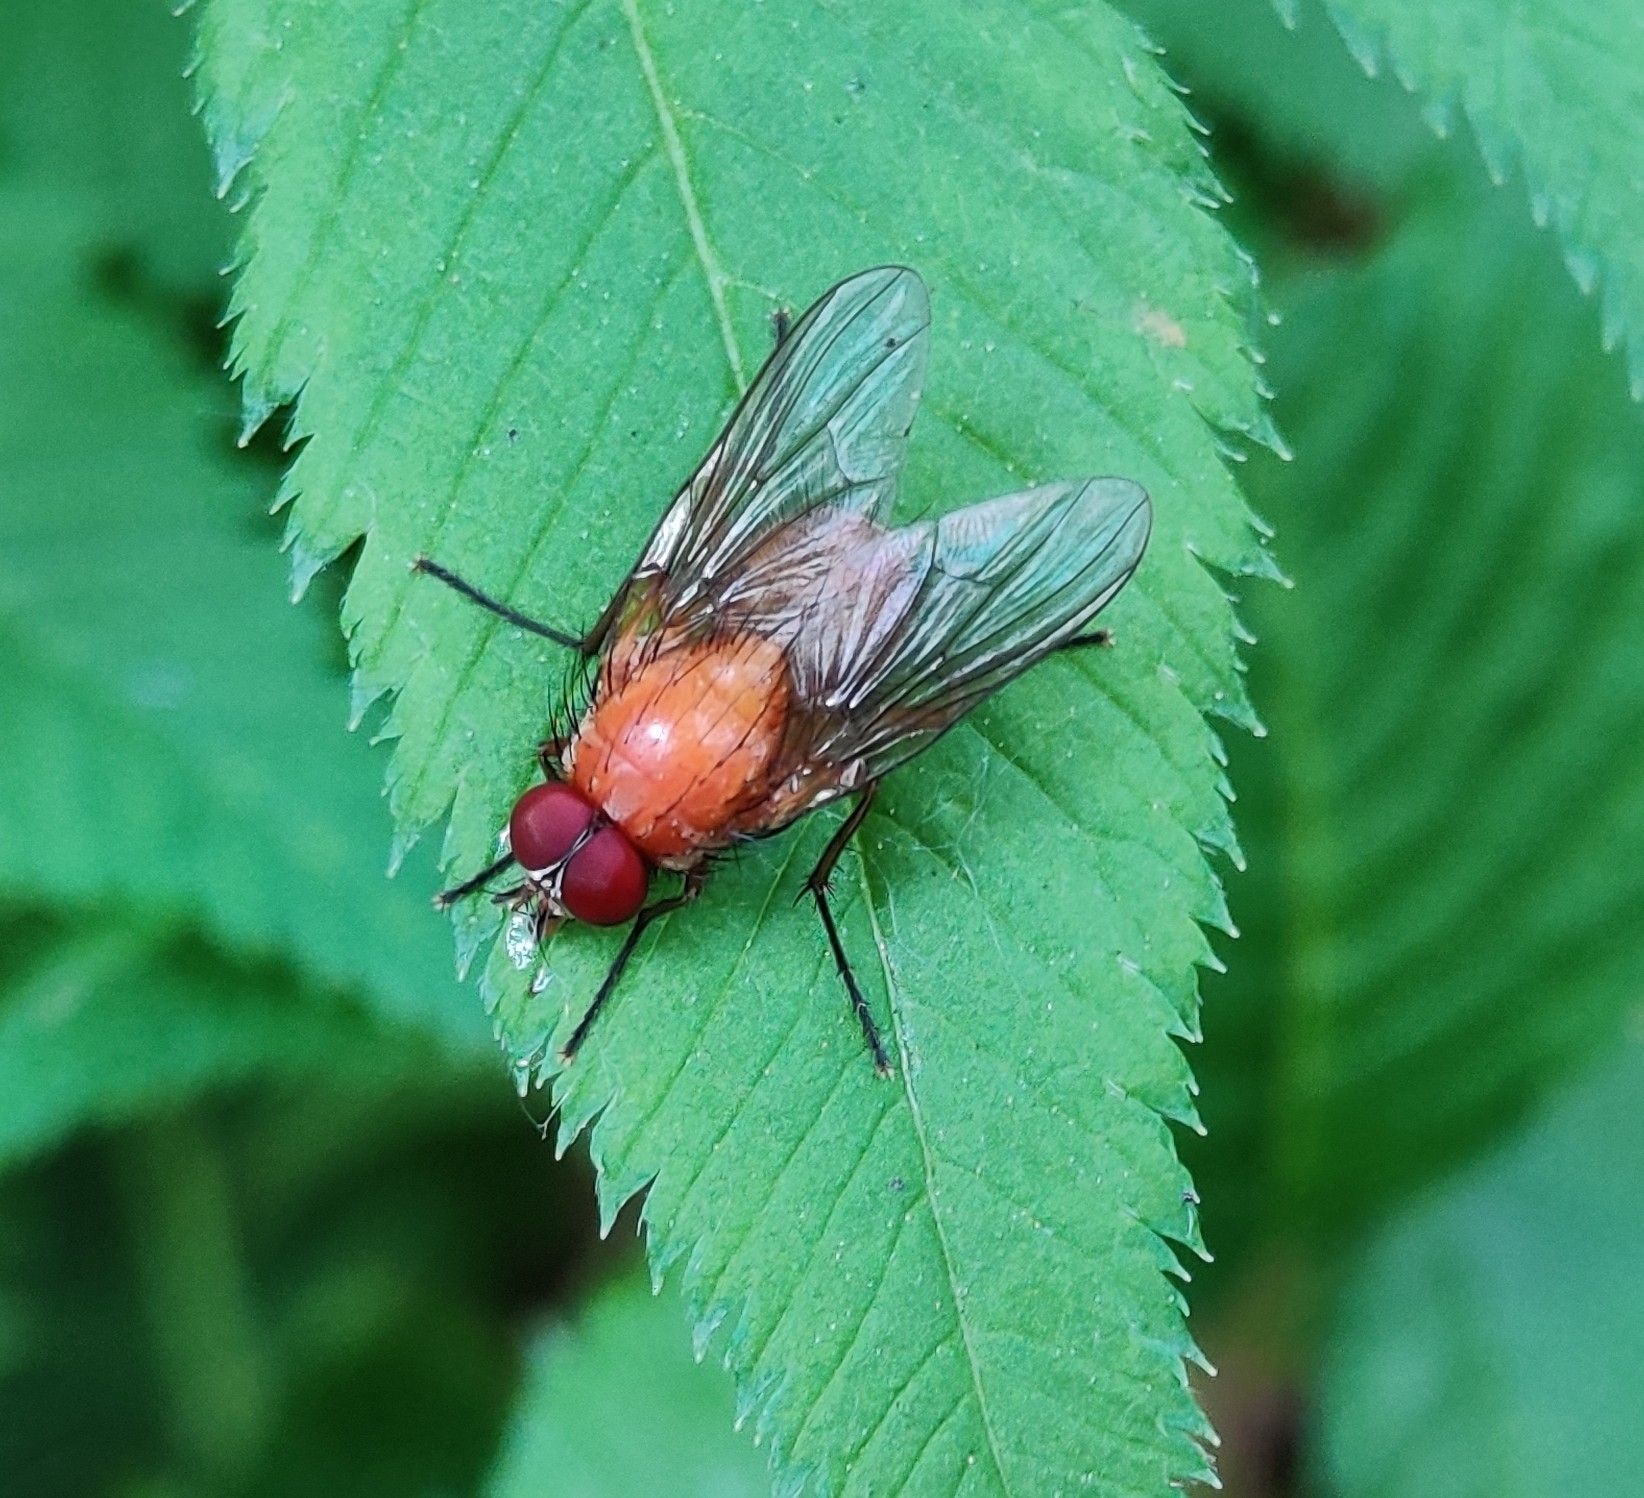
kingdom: Animalia
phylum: Arthropoda
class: Insecta
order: Diptera
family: Muscidae
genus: Phaonia
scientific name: Phaonia pallida
